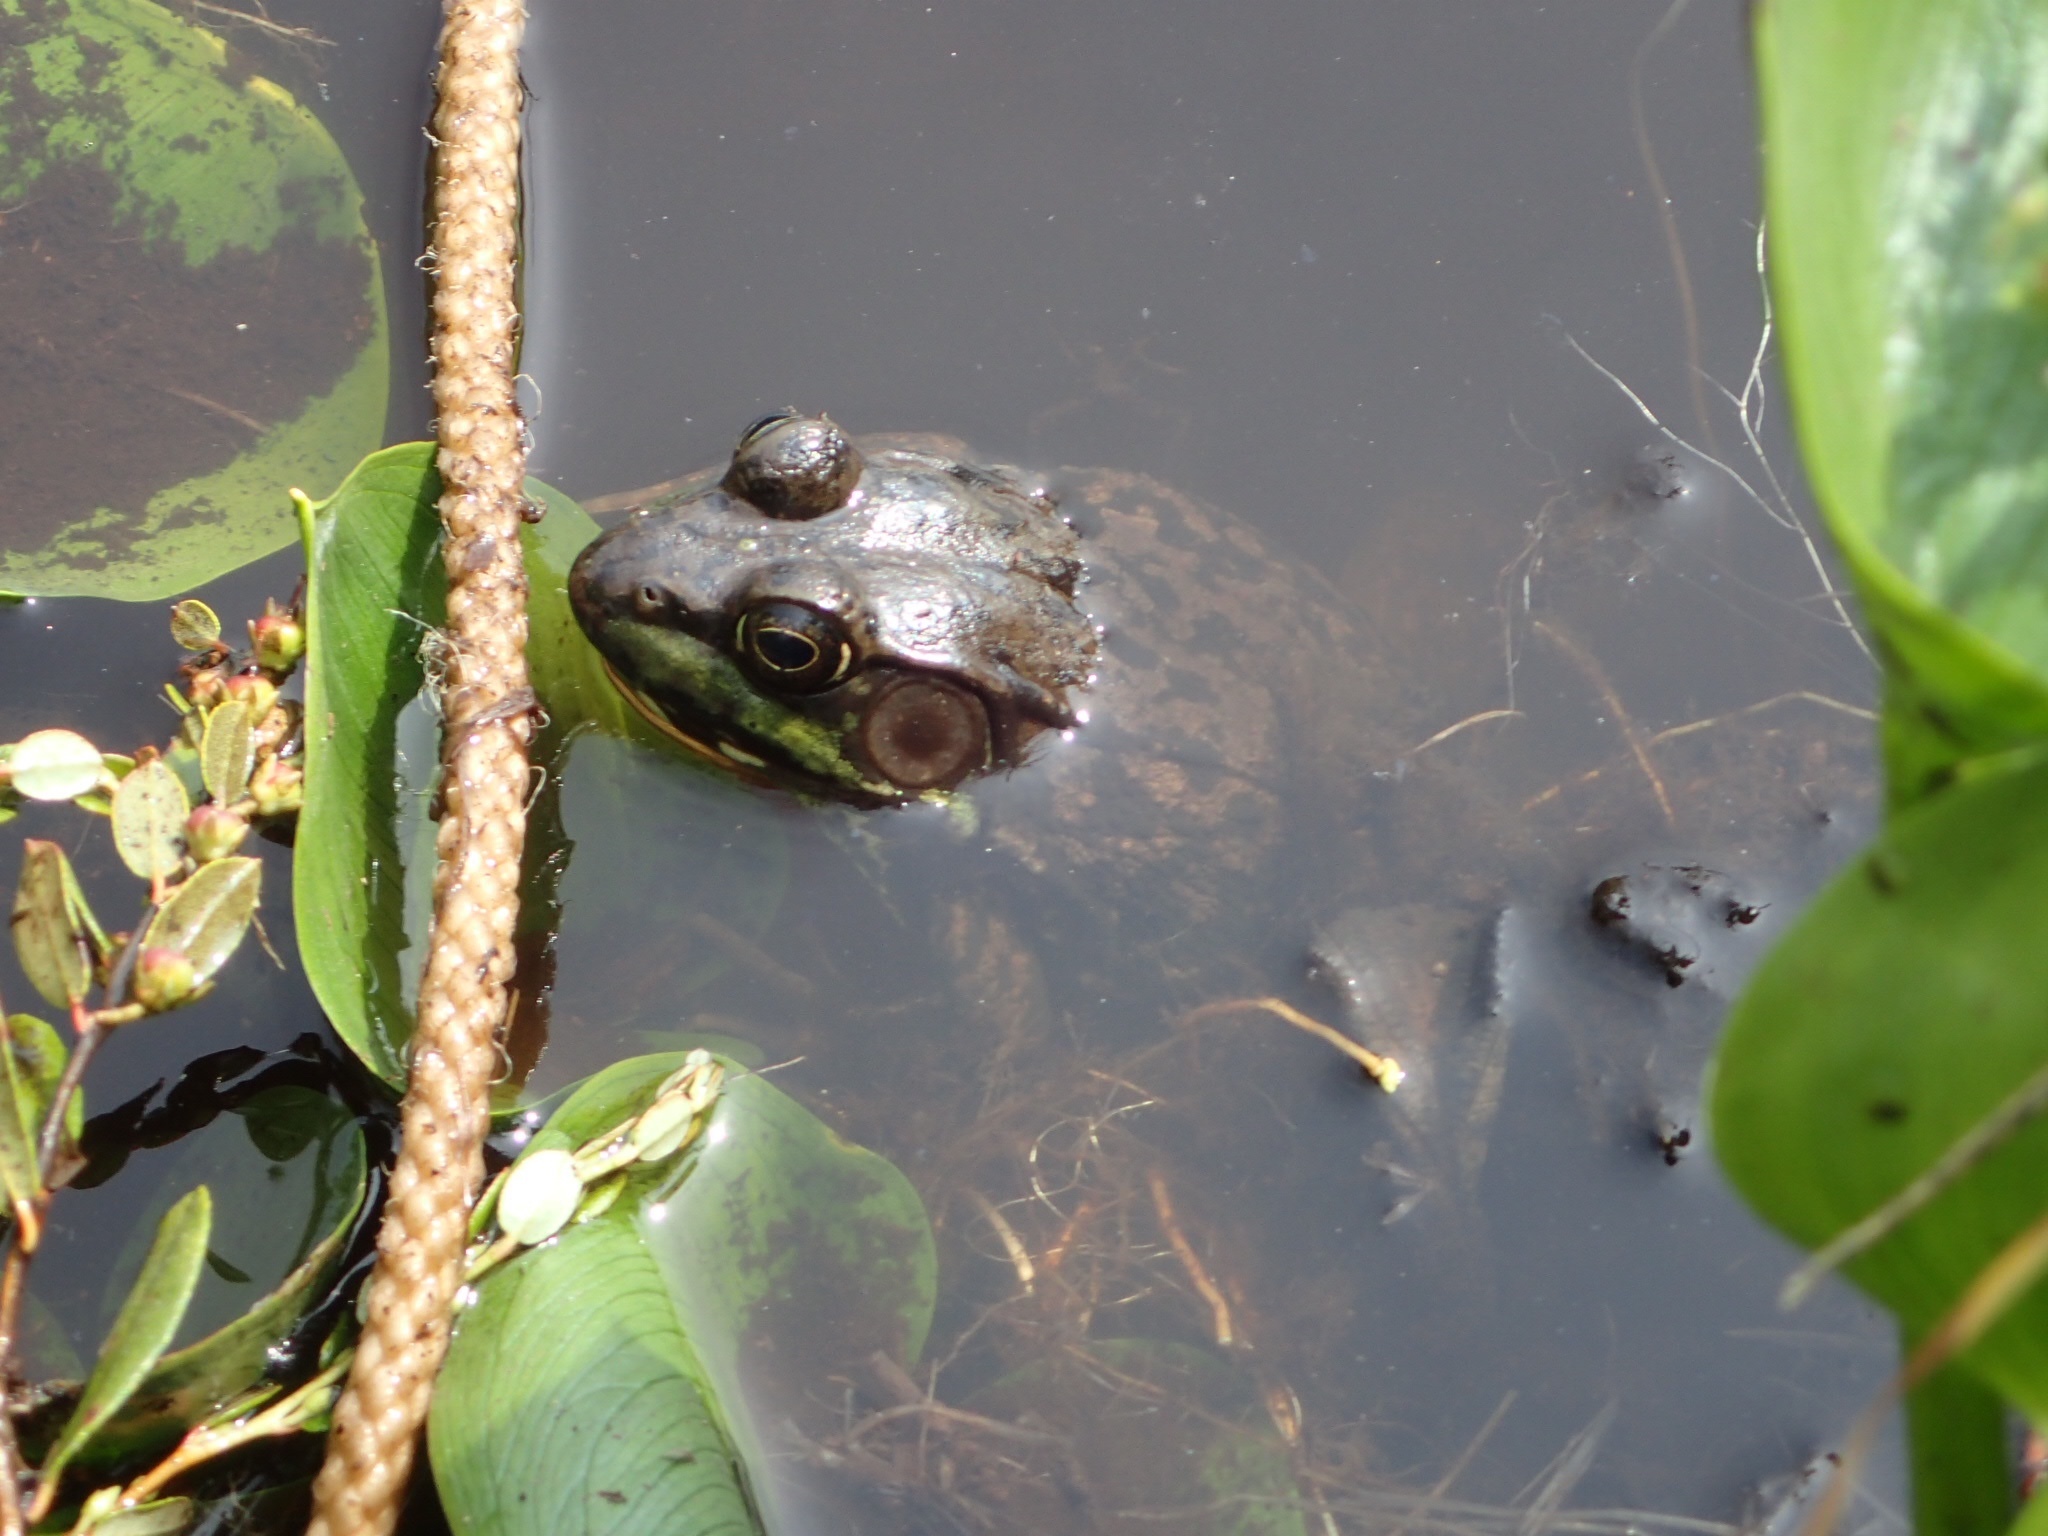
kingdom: Animalia
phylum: Chordata
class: Amphibia
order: Anura
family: Ranidae
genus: Lithobates
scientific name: Lithobates clamitans
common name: Green frog
